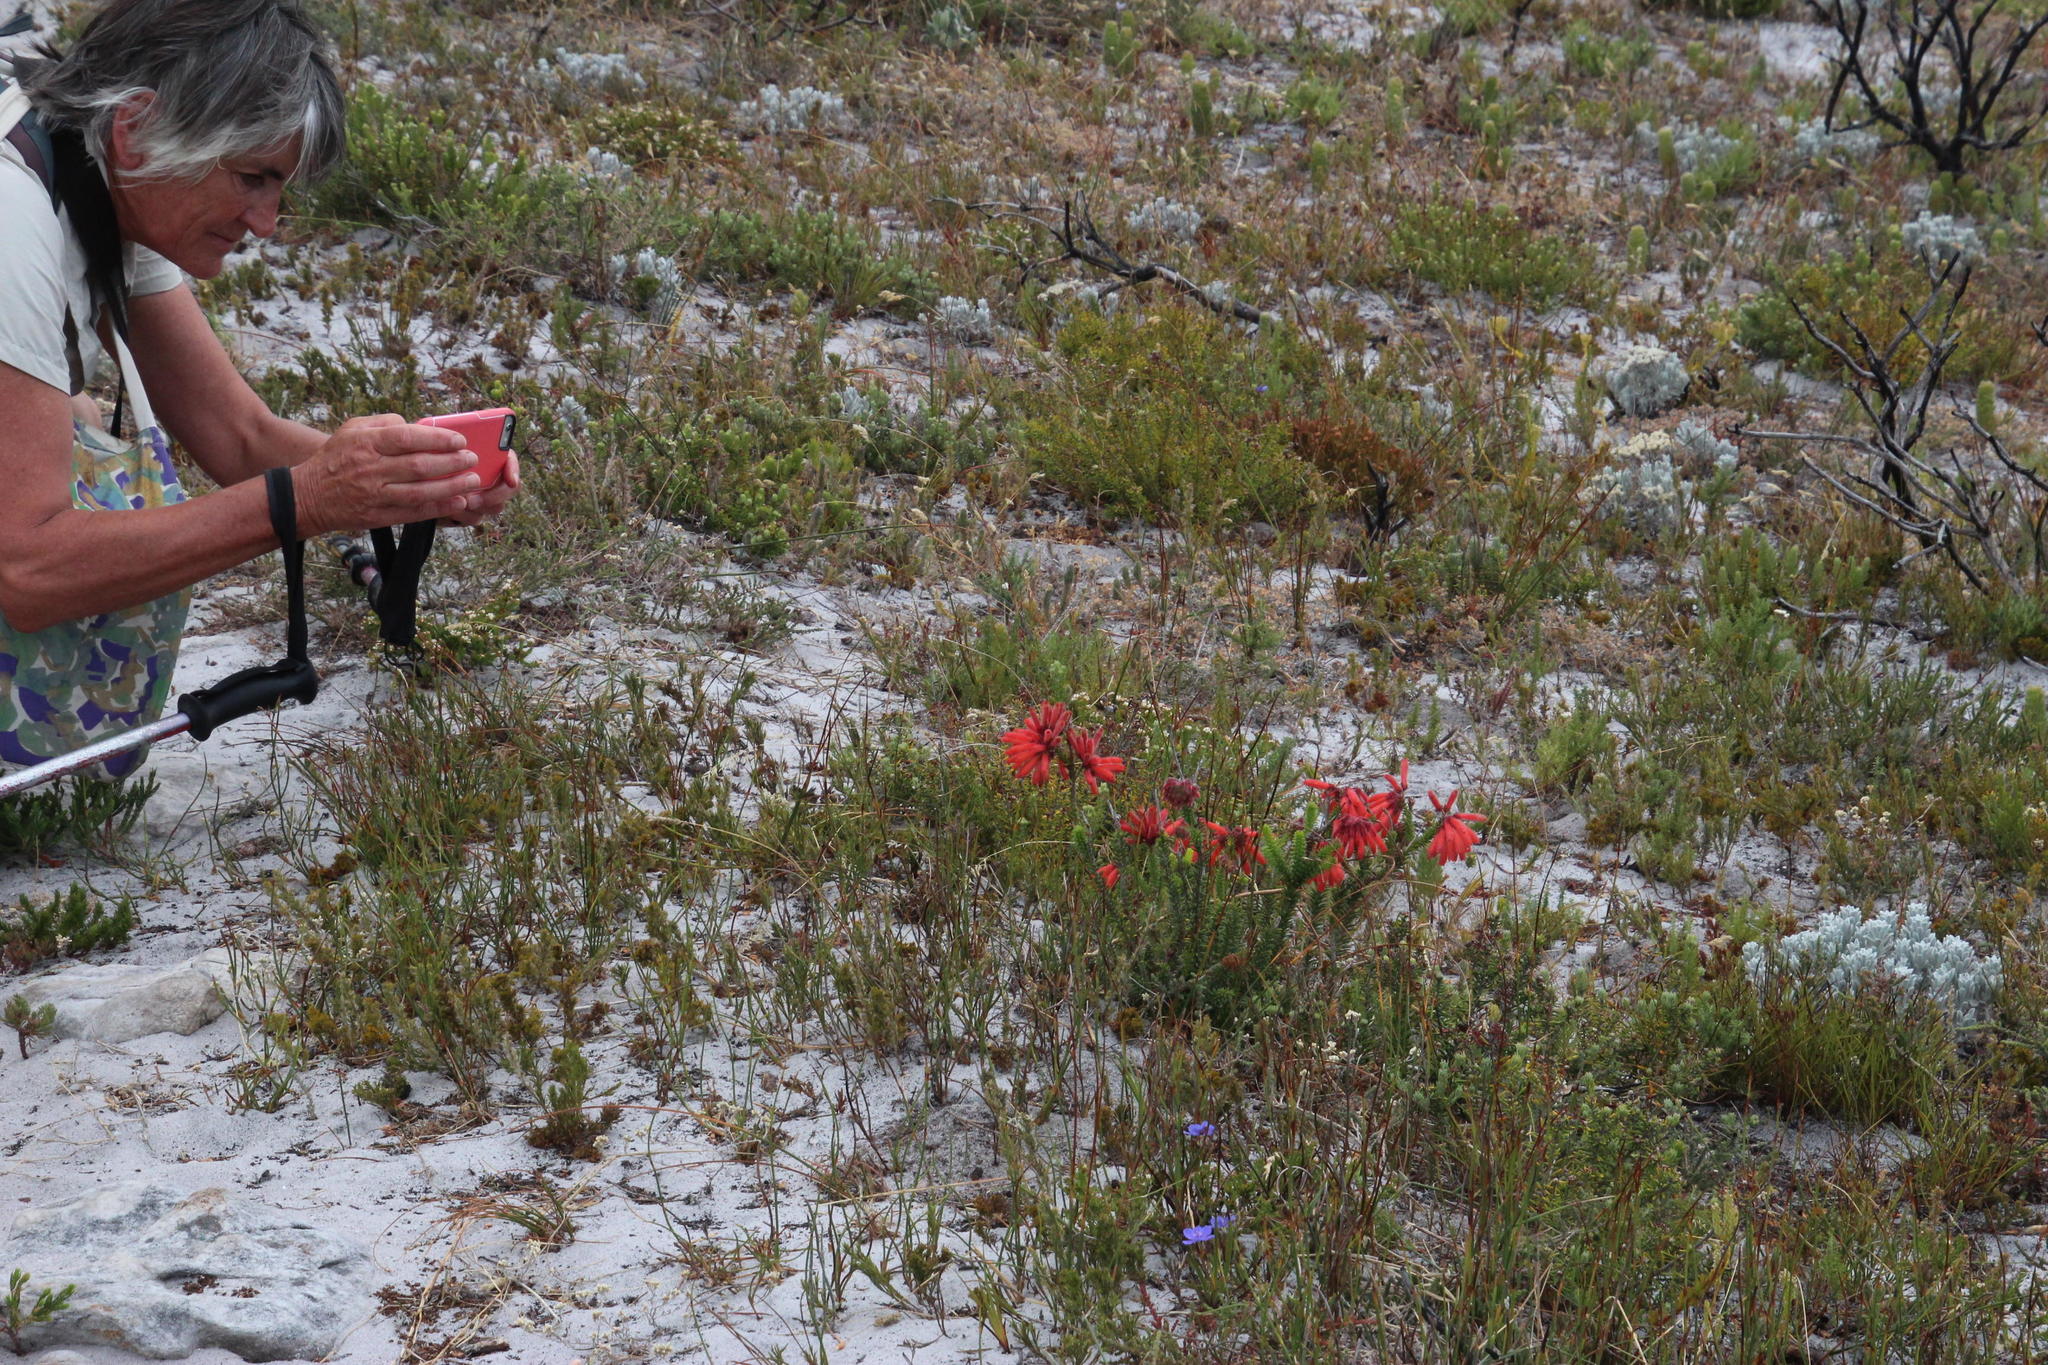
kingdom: Plantae
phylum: Tracheophyta
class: Magnoliopsida
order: Ericales
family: Ericaceae
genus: Erica
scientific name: Erica cerinthoides
